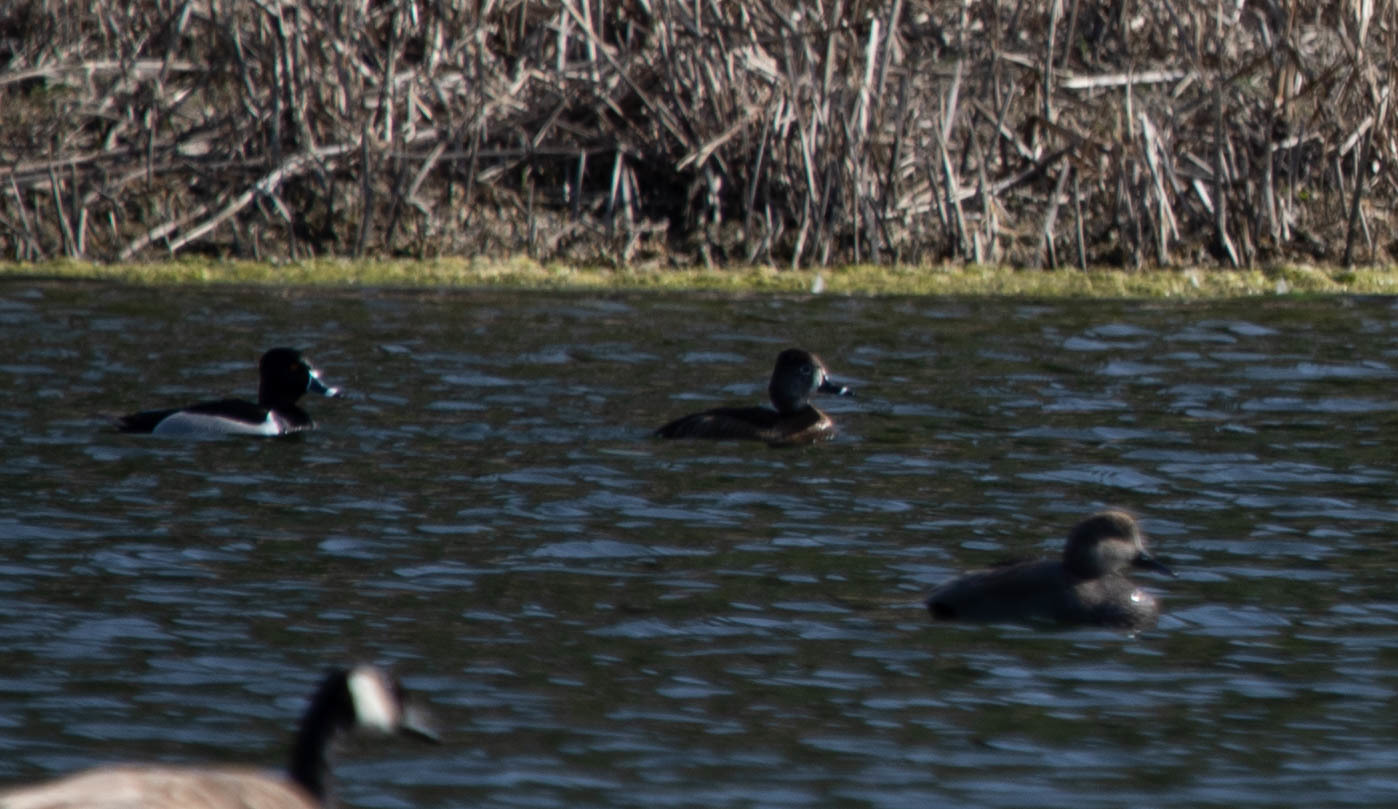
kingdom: Animalia
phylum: Chordata
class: Aves
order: Anseriformes
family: Anatidae
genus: Aythya
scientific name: Aythya collaris
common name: Ring-necked duck
